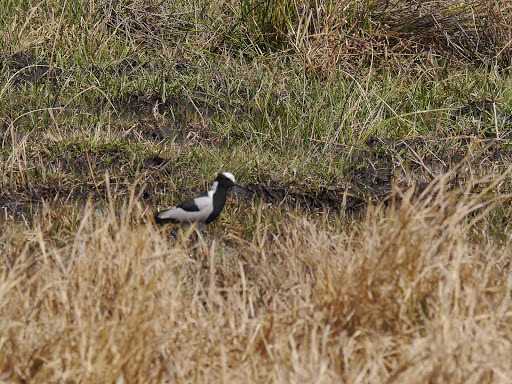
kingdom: Animalia
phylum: Chordata
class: Aves
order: Charadriiformes
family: Charadriidae
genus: Vanellus
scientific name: Vanellus armatus
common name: Blacksmith lapwing
